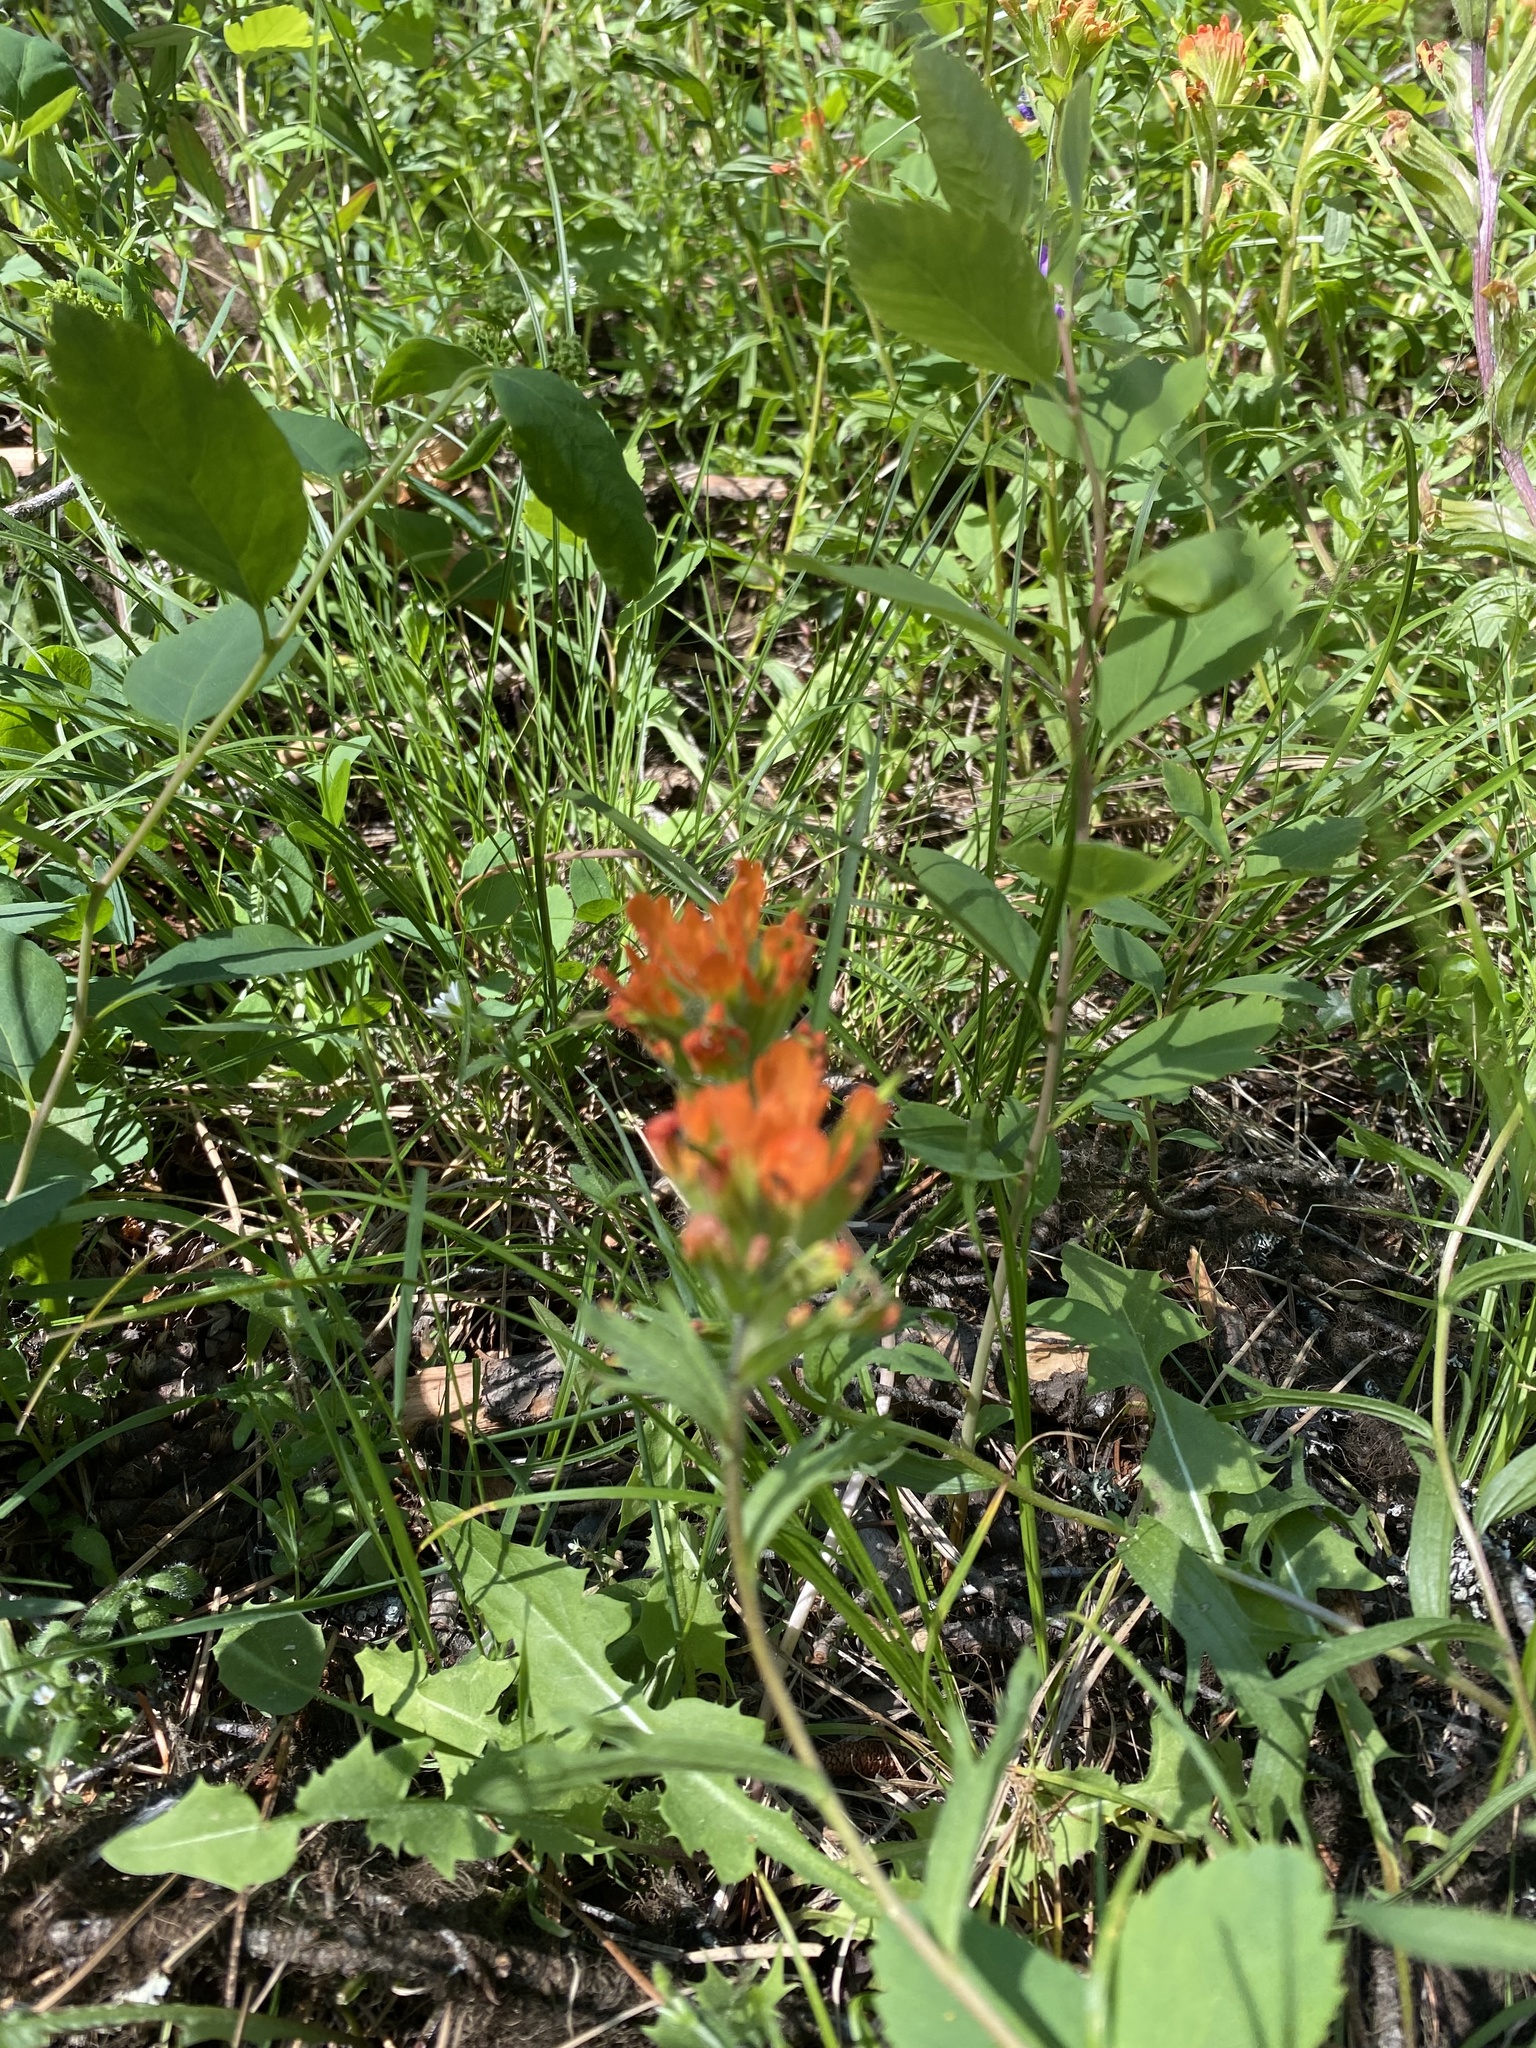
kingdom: Plantae
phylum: Tracheophyta
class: Magnoliopsida
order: Lamiales
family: Orobanchaceae
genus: Castilleja
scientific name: Castilleja hispida
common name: Bristly paintbrush
